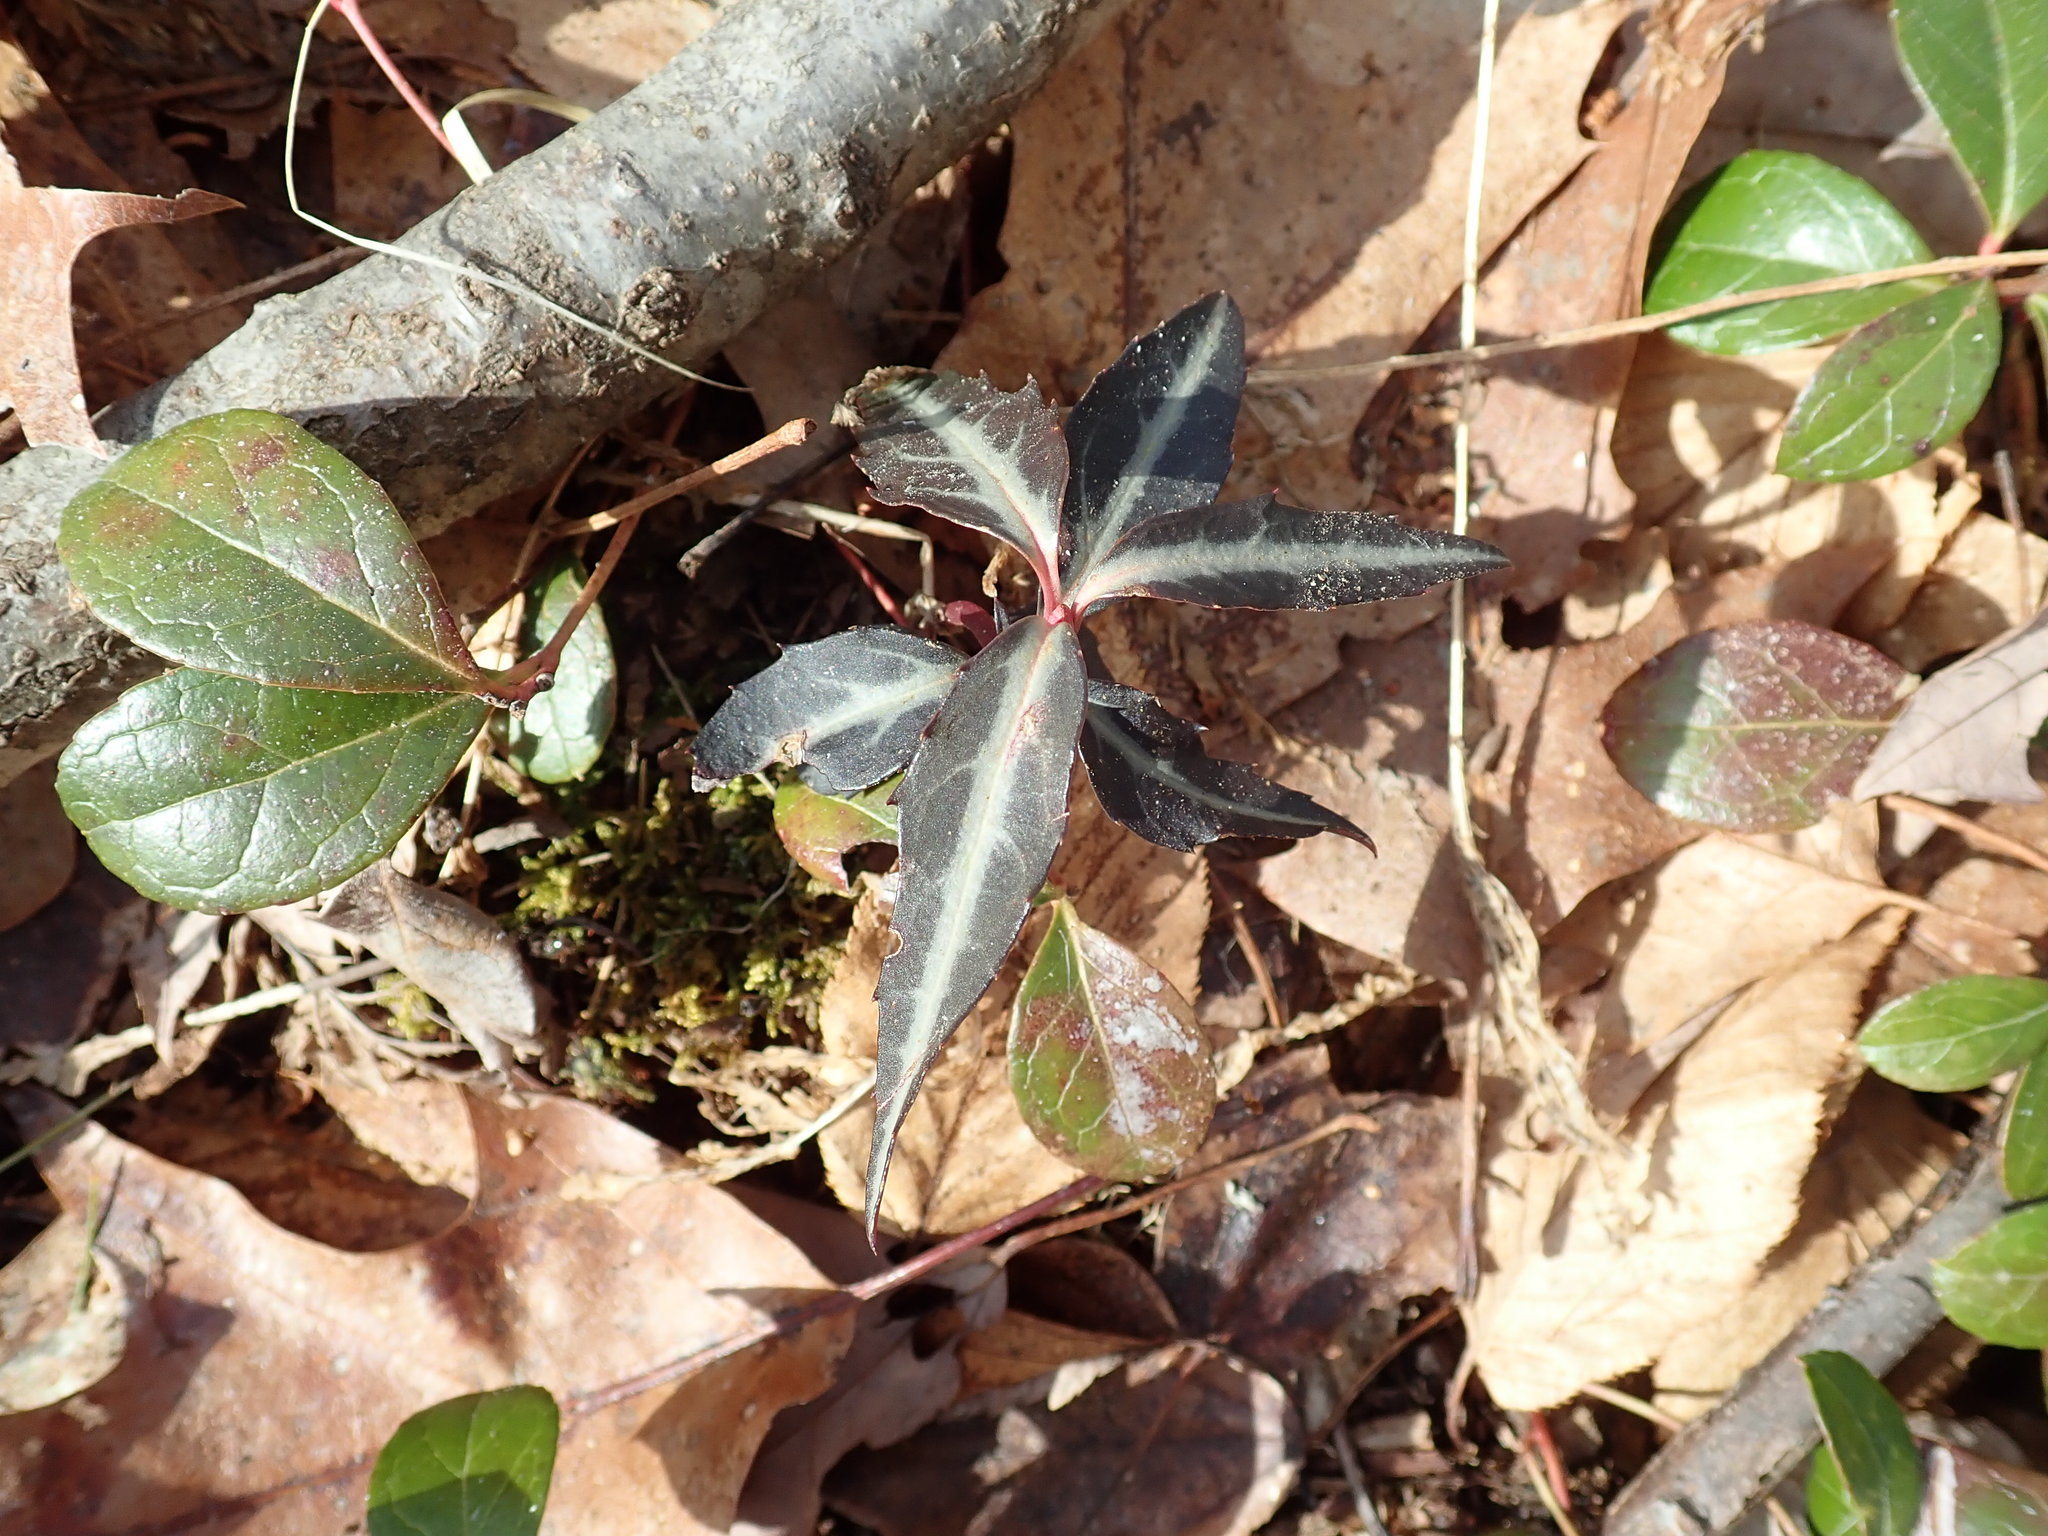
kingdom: Plantae
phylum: Tracheophyta
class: Magnoliopsida
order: Ericales
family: Ericaceae
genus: Chimaphila
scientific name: Chimaphila maculata
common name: Spotted pipsissewa
